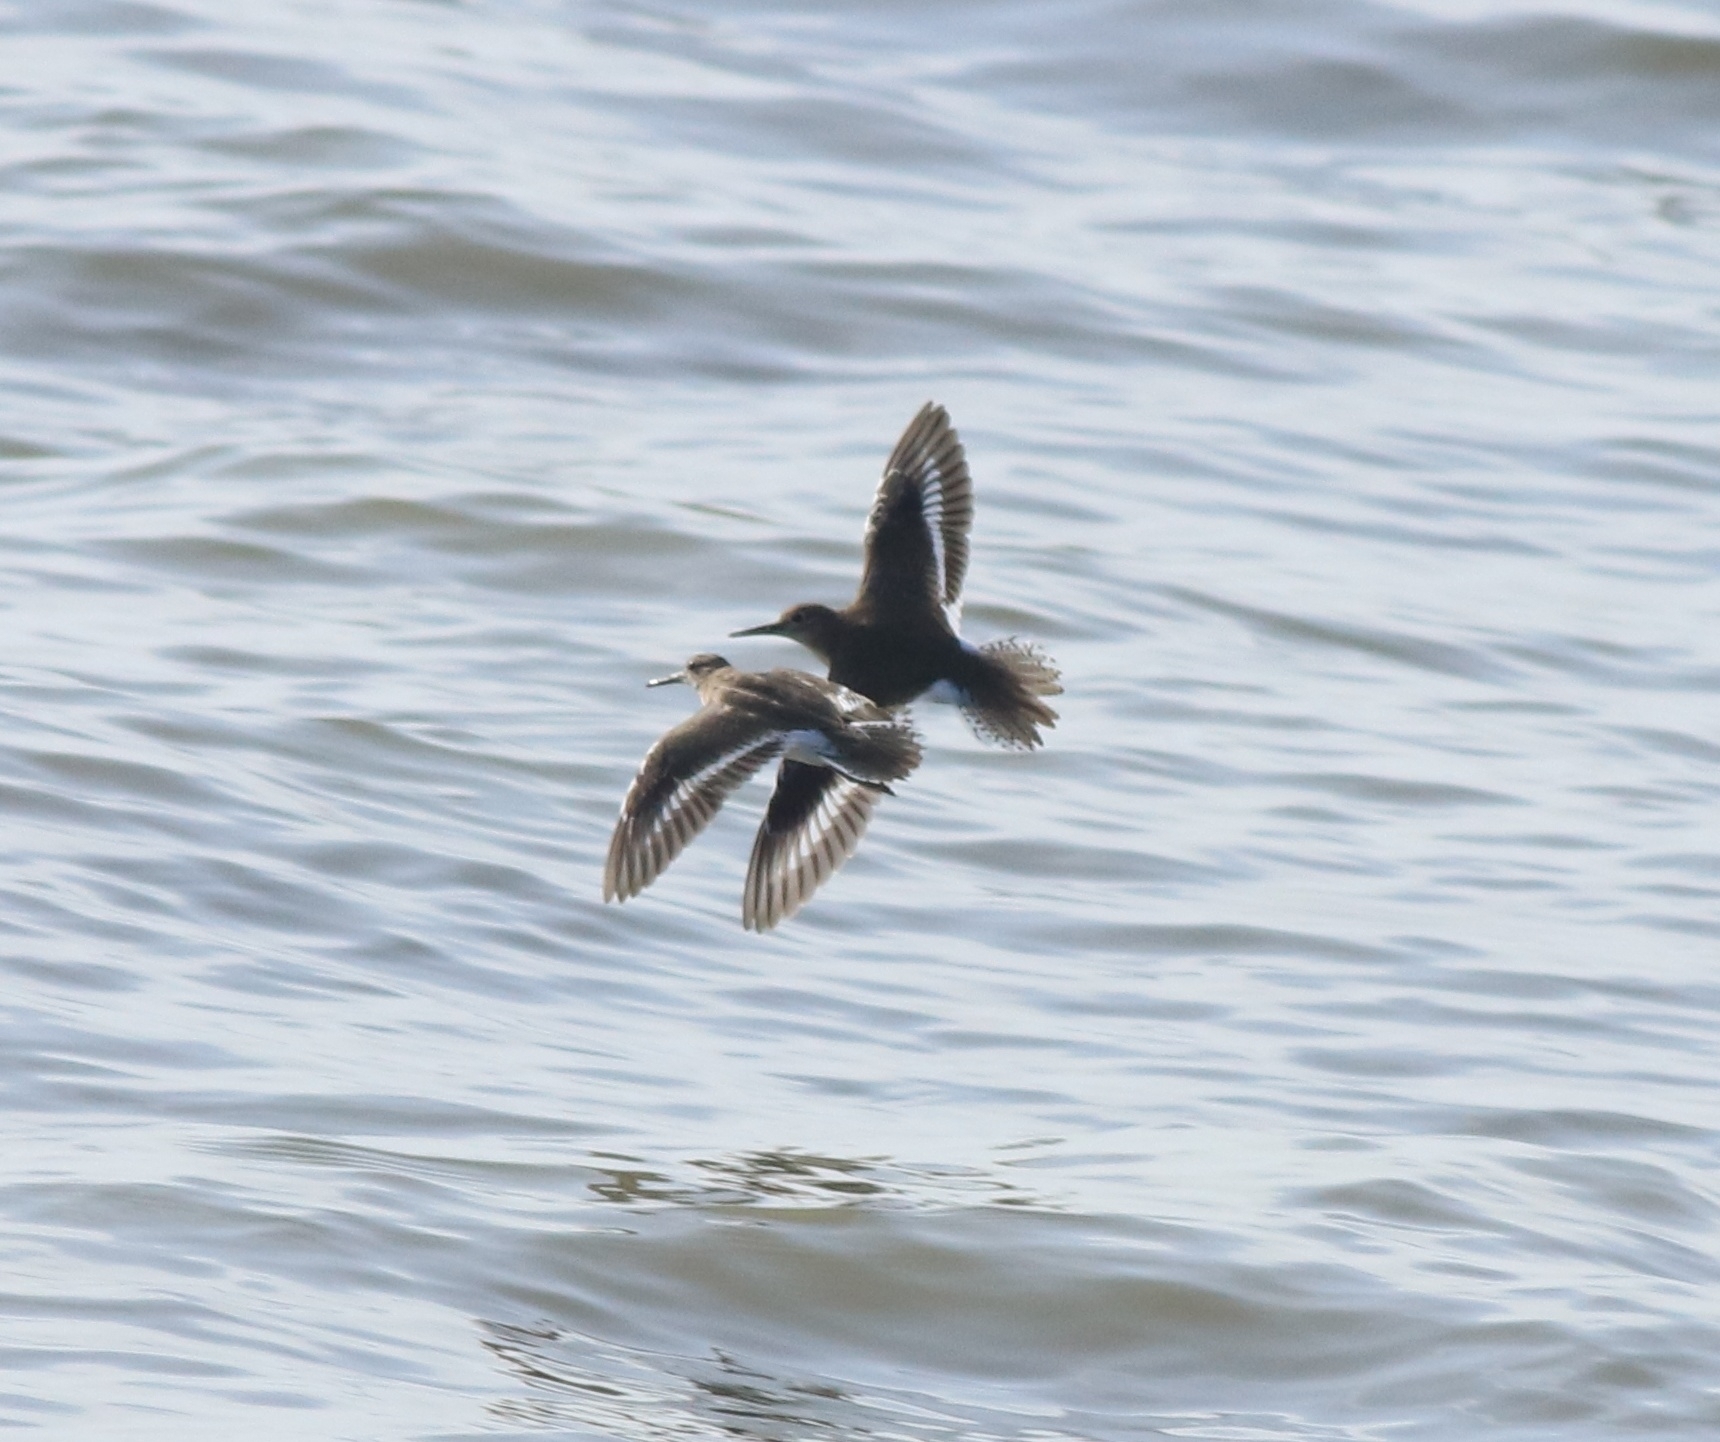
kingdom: Animalia
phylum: Chordata
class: Aves
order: Charadriiformes
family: Scolopacidae
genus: Actitis
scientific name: Actitis hypoleucos
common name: Common sandpiper
